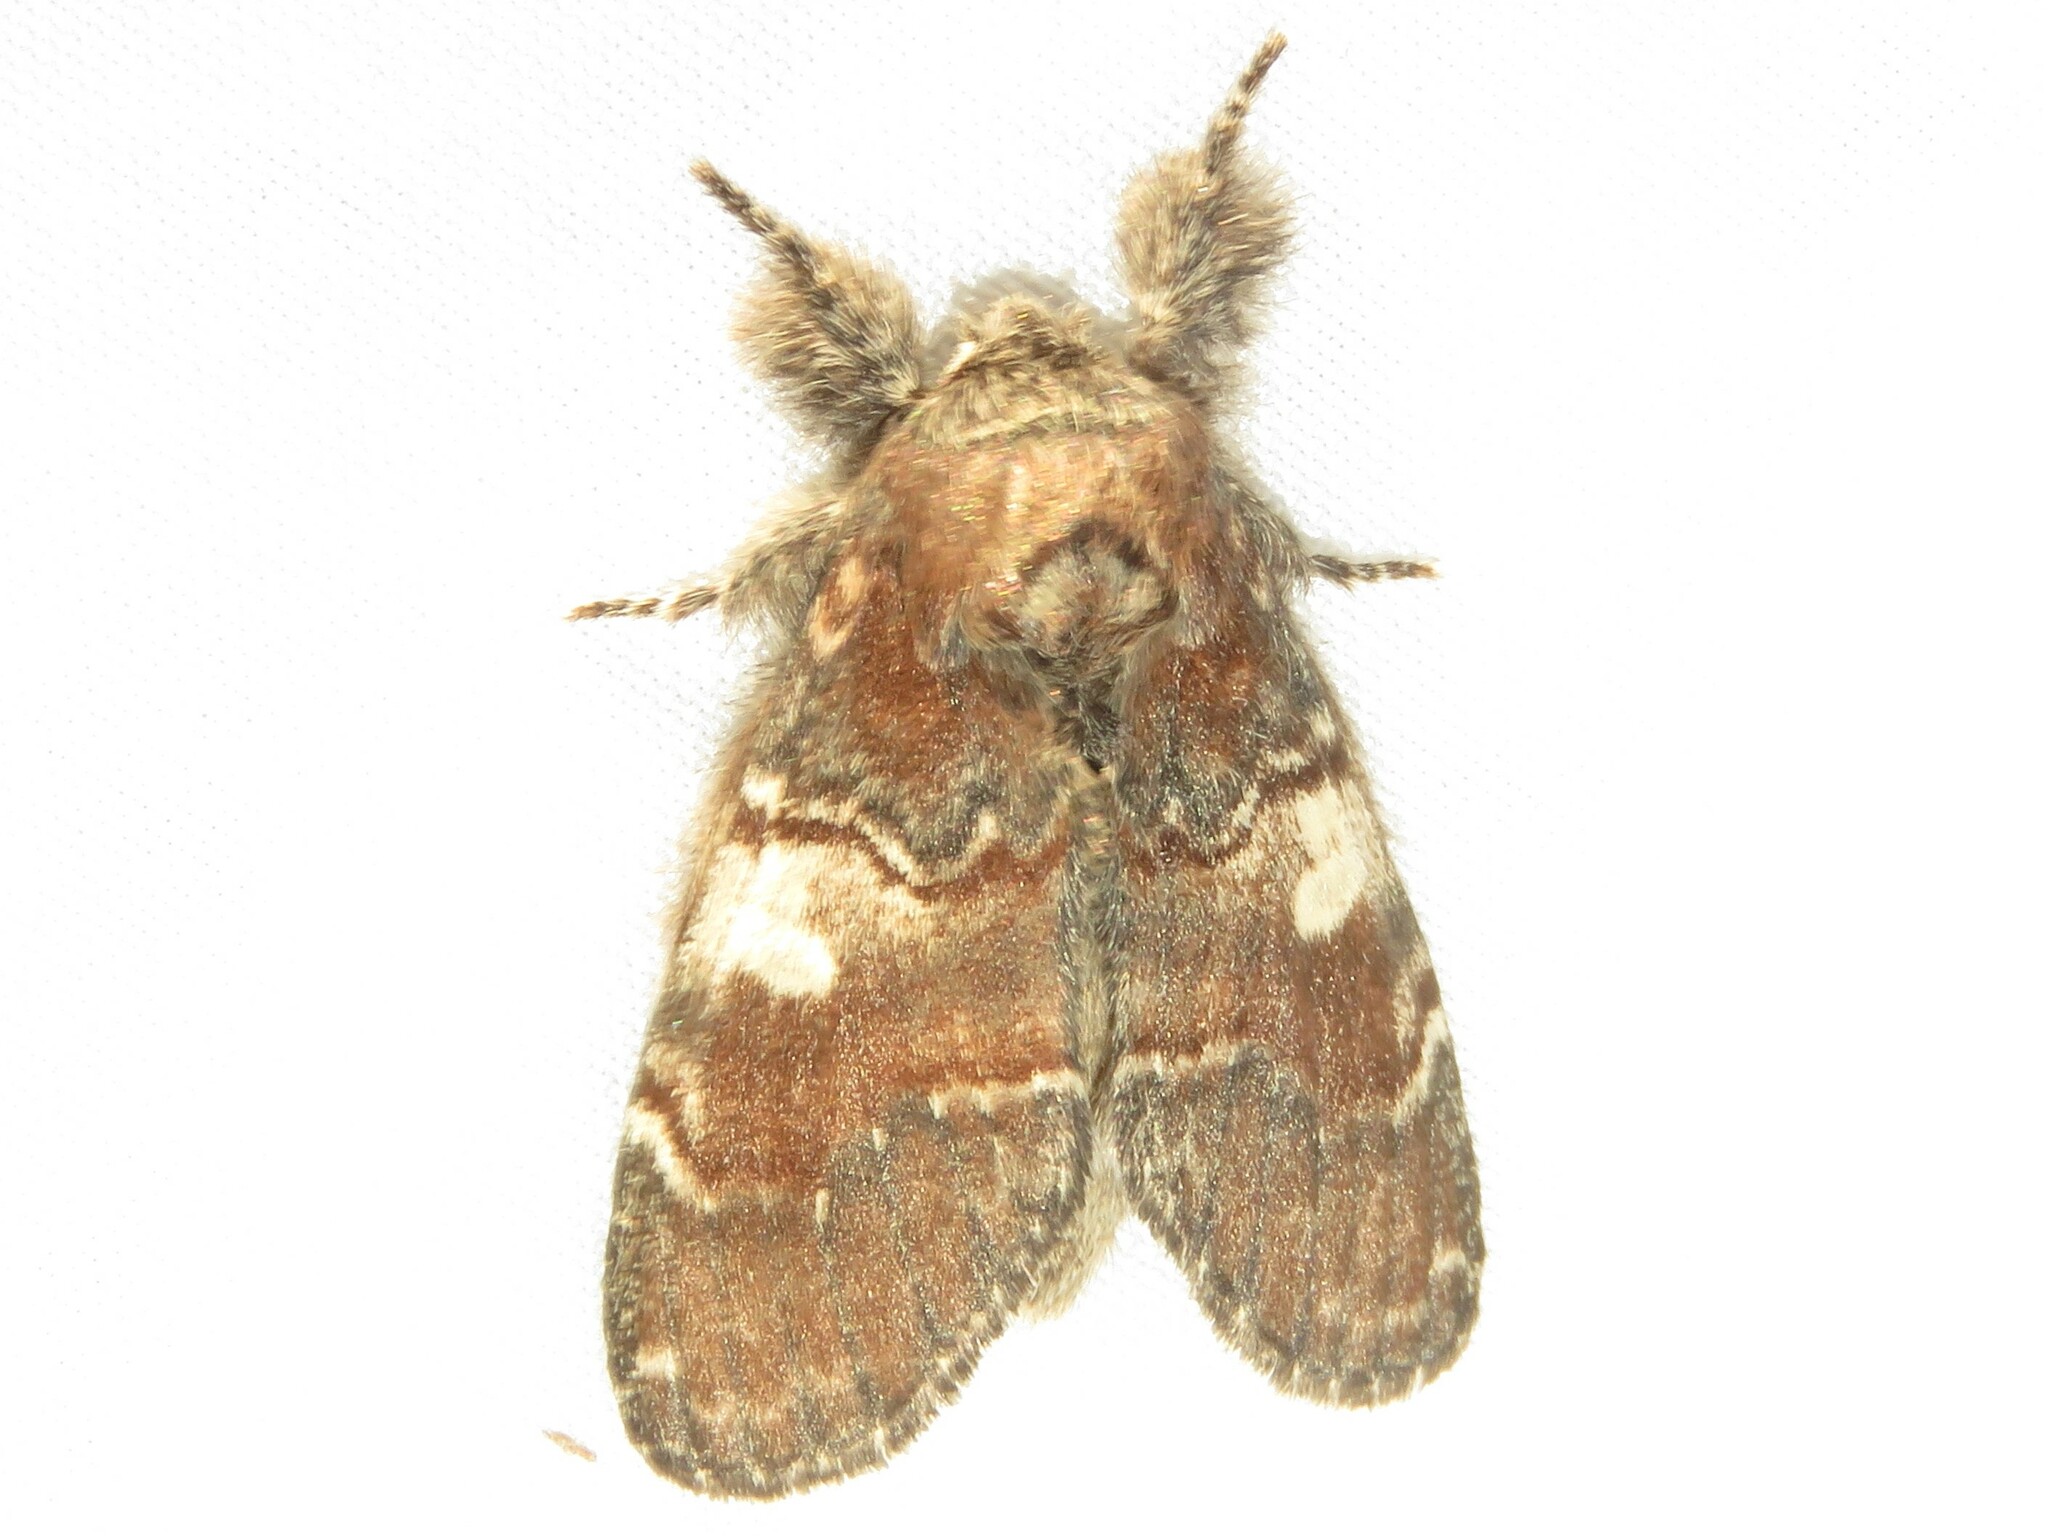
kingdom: Animalia
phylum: Arthropoda
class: Insecta
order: Lepidoptera
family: Notodontidae
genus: Peridea
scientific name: Peridea ferruginea
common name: Chocolate prominent
